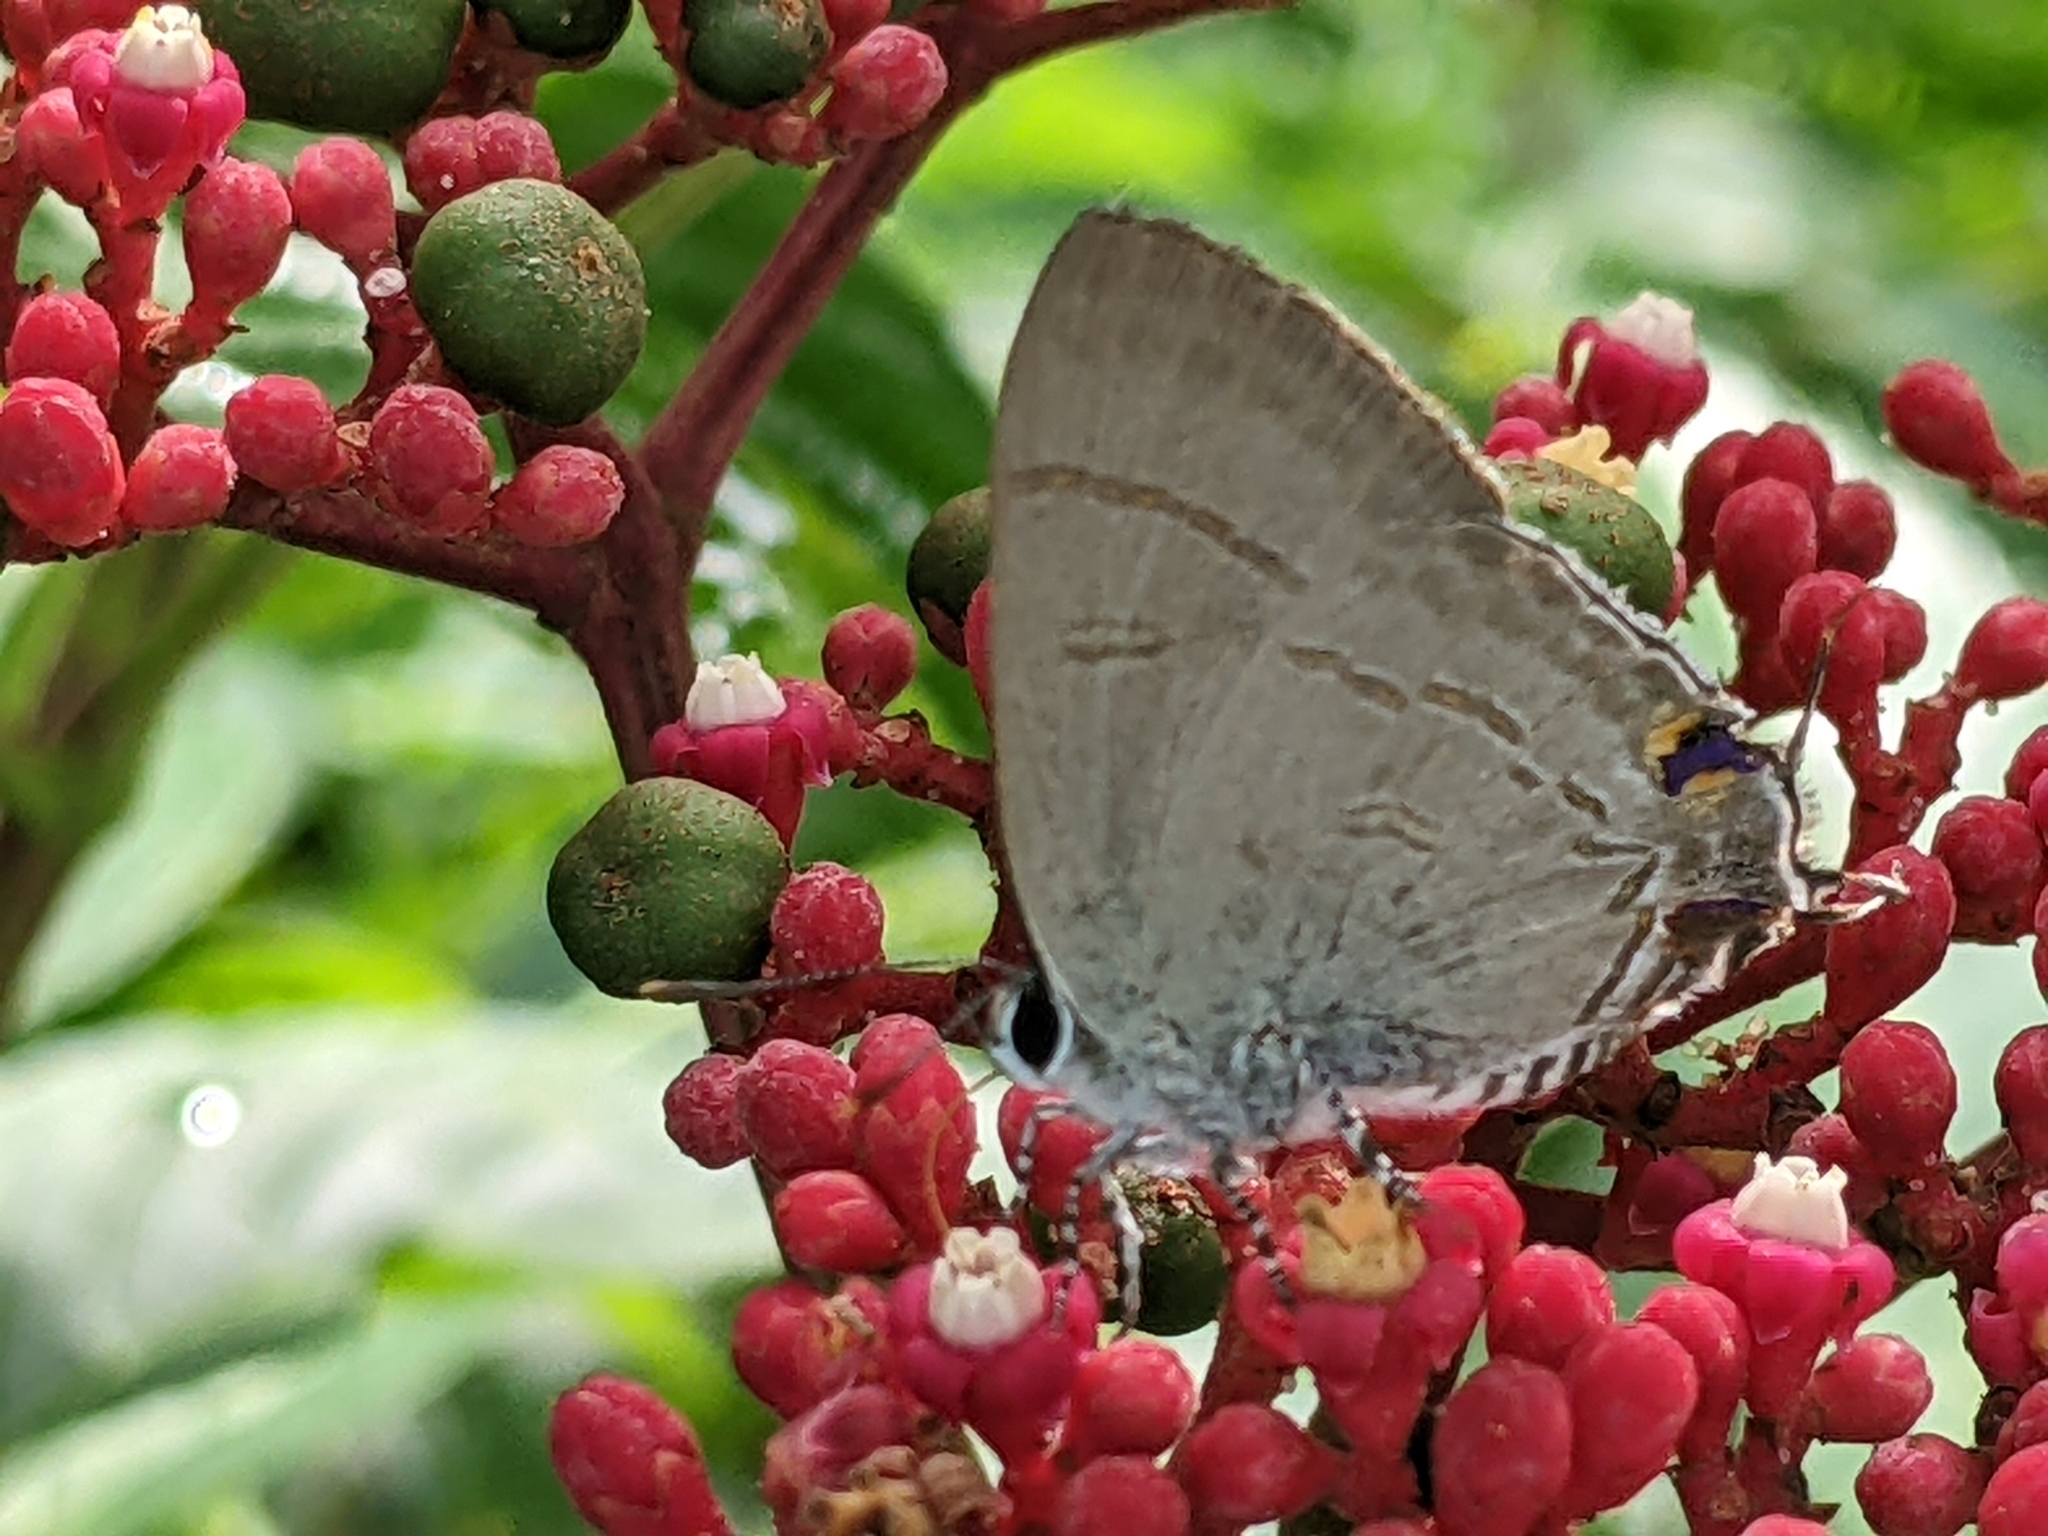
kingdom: Animalia
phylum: Arthropoda
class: Insecta
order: Lepidoptera
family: Lycaenidae
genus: Hypolycaena
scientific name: Hypolycaena erylus
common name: Common tit
